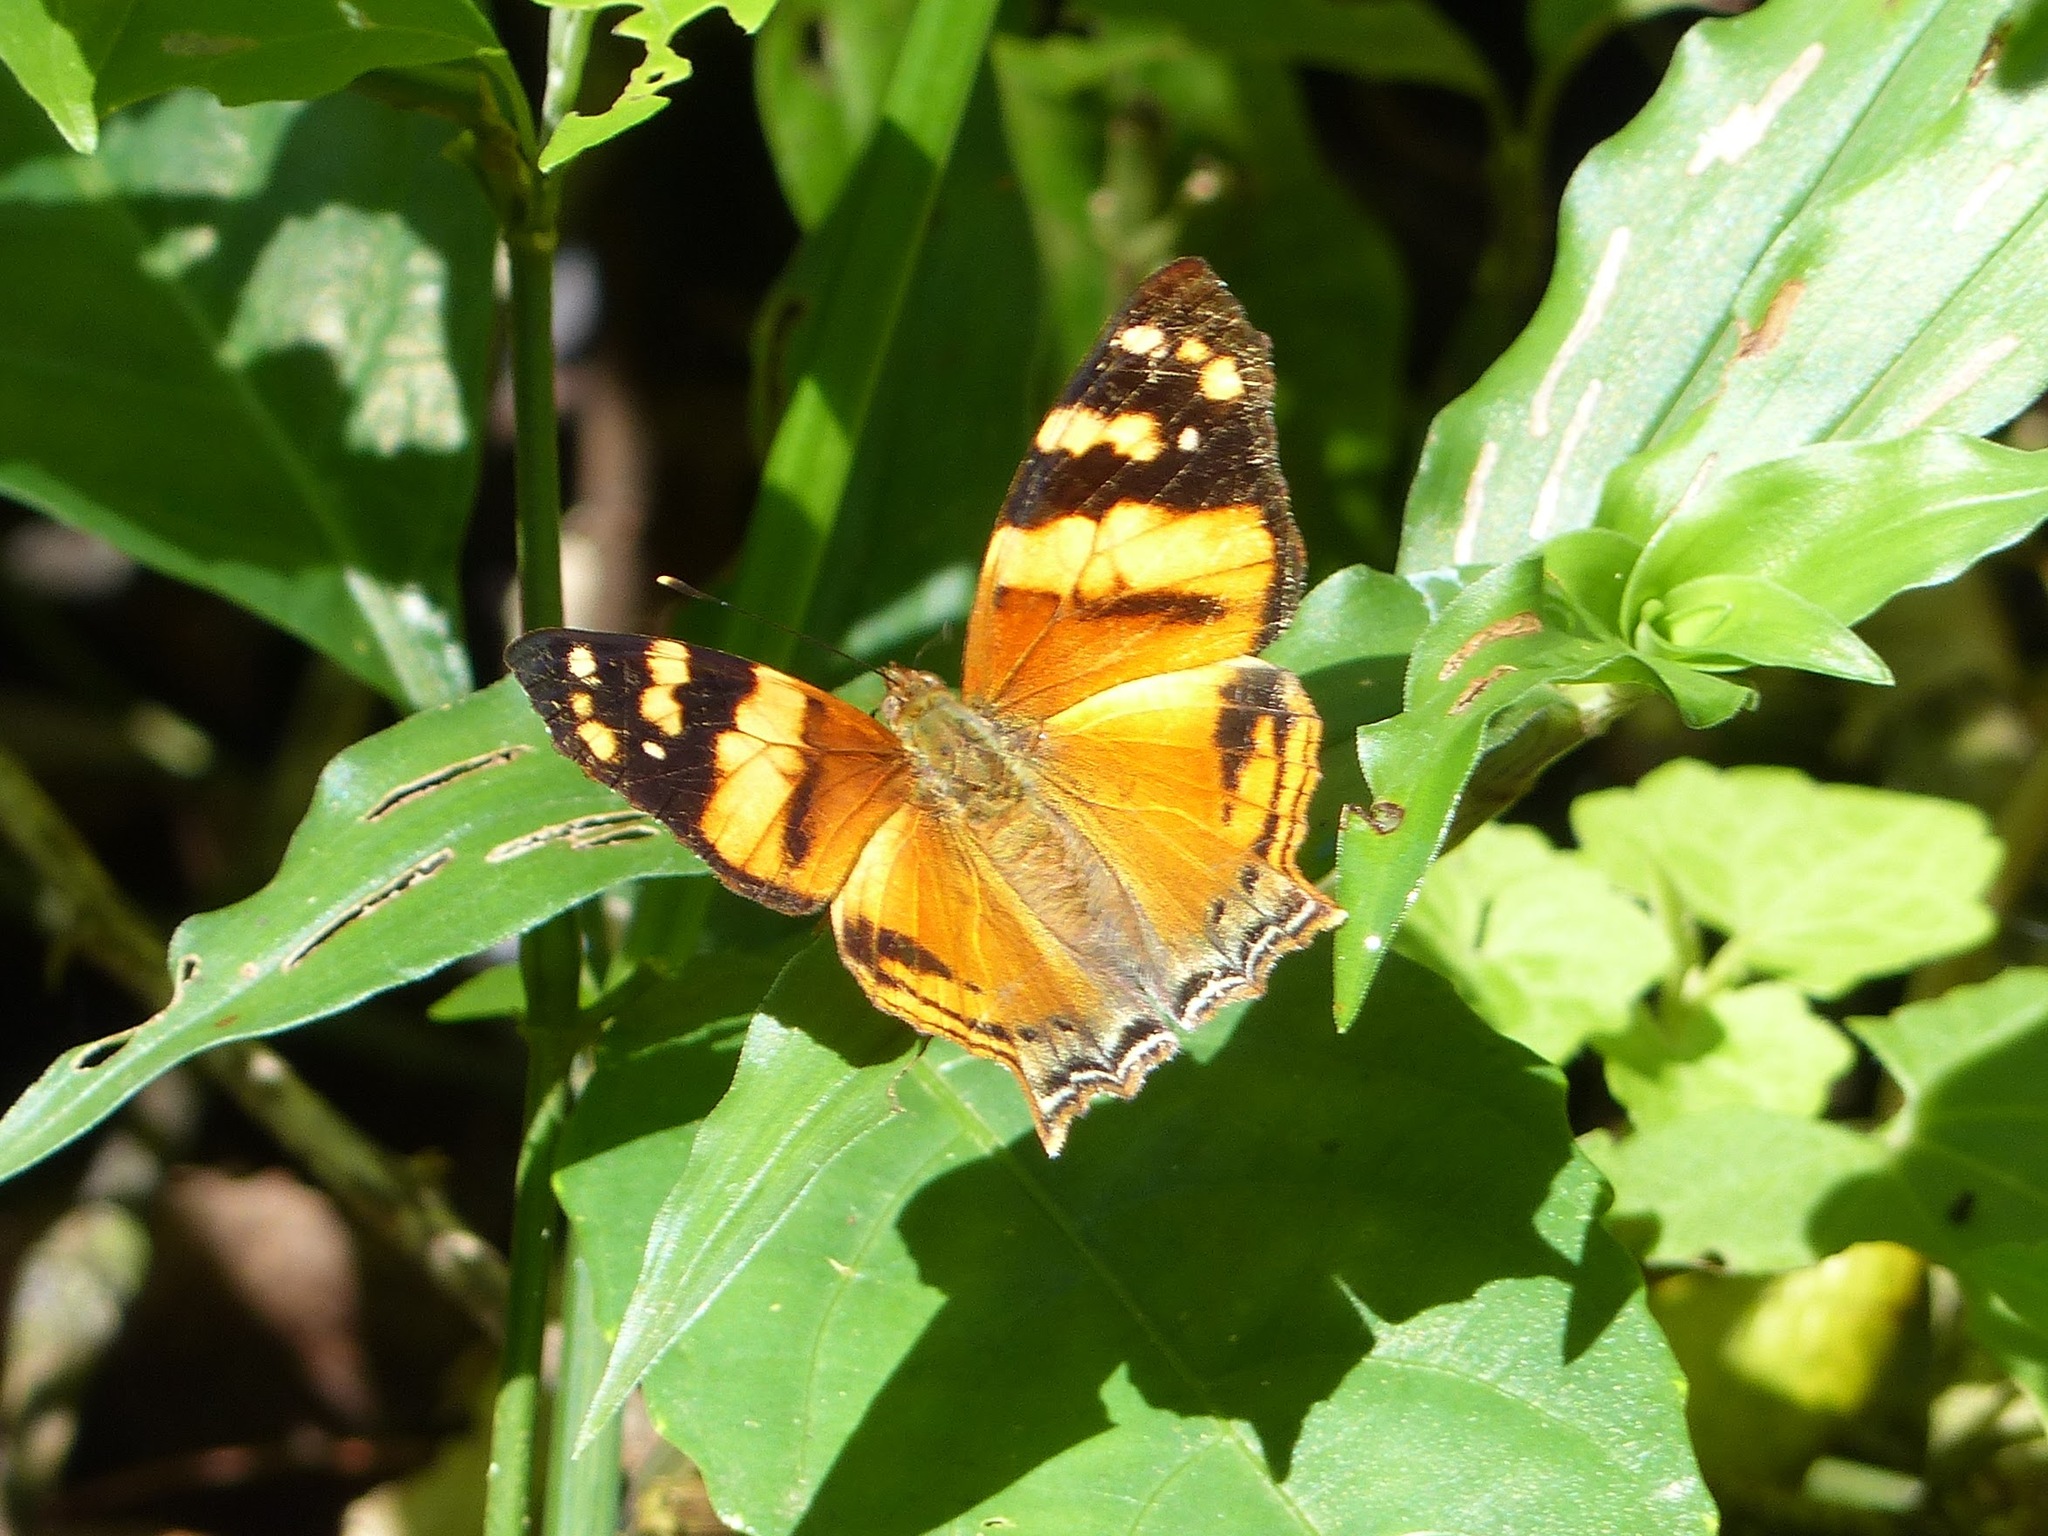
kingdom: Animalia
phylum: Arthropoda
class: Insecta
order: Lepidoptera
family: Nymphalidae
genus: Hypanartia
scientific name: Hypanartia lethe
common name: Orange mapwing
